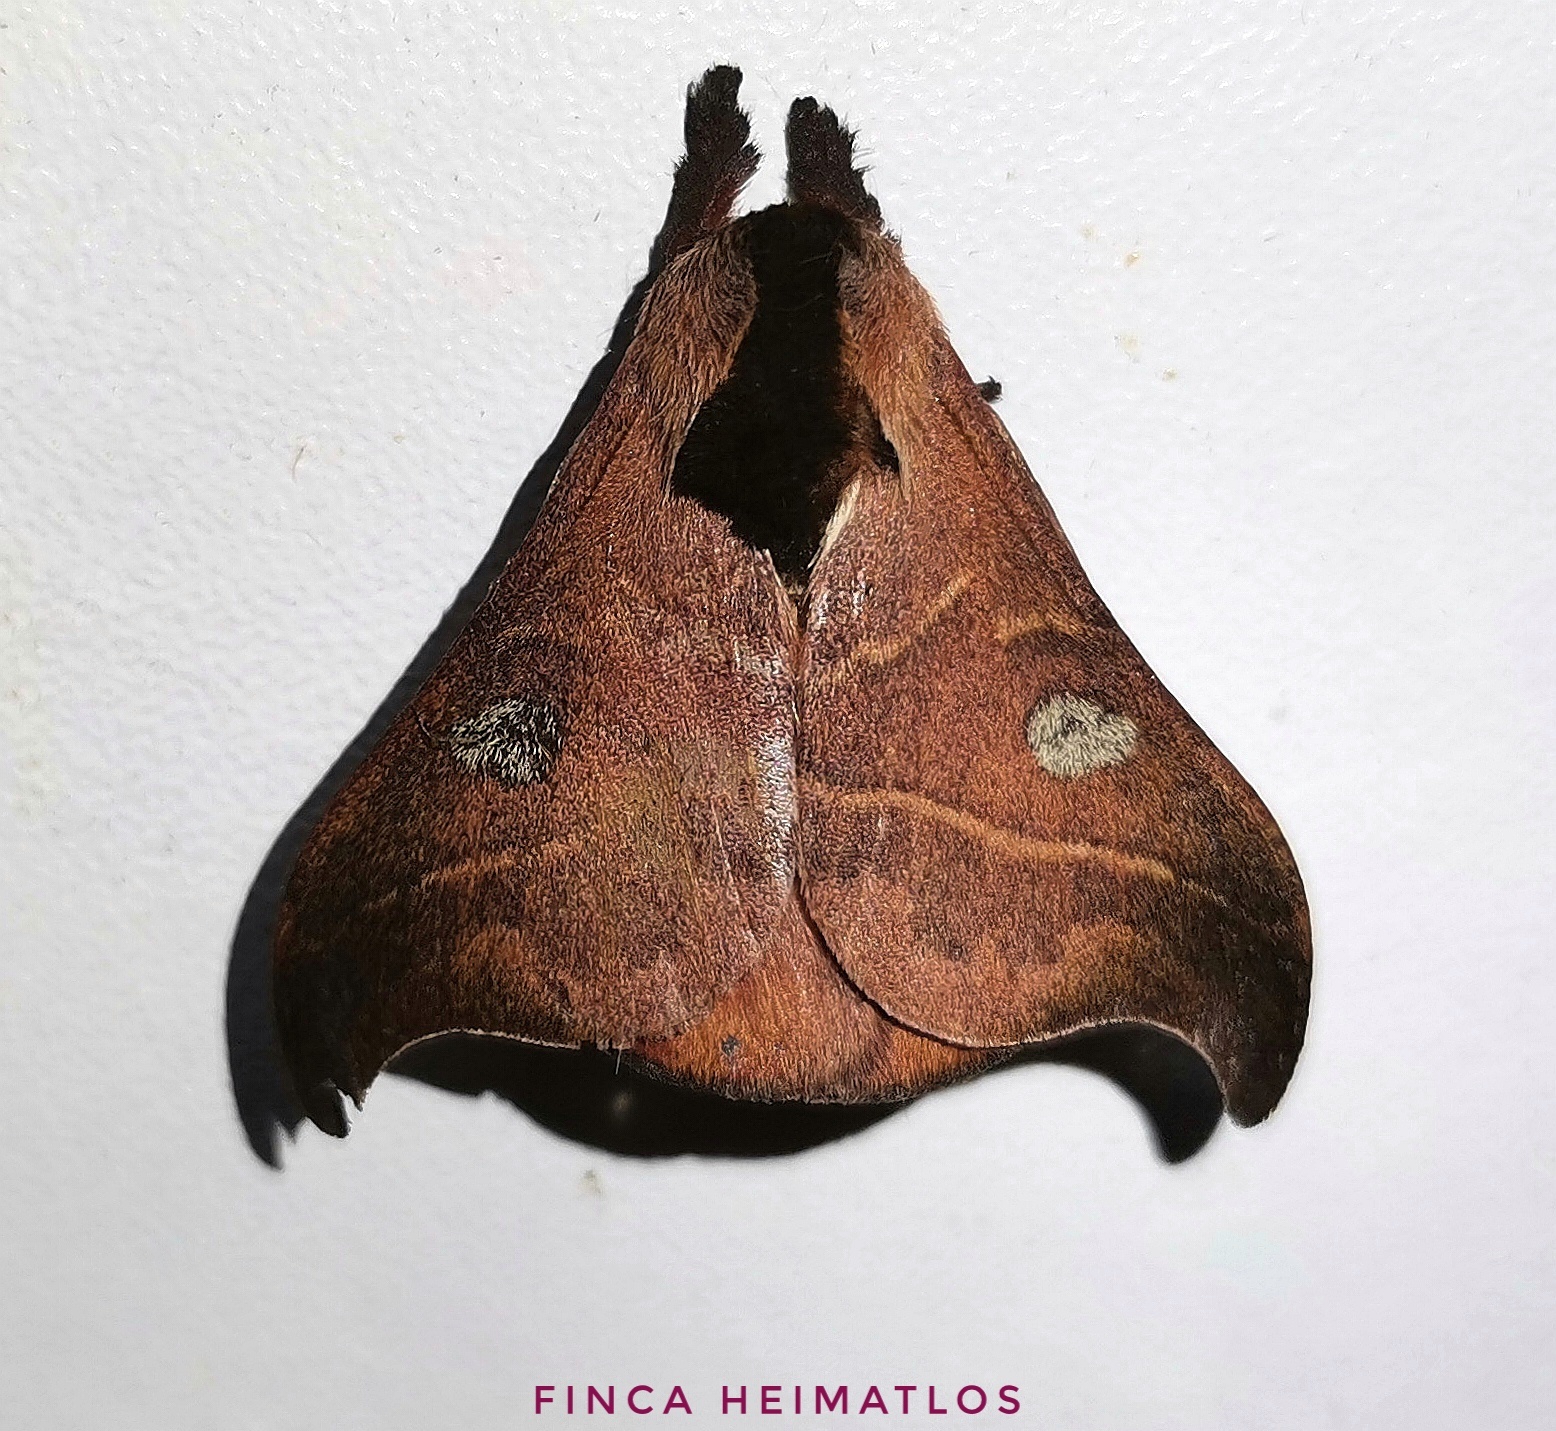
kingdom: Animalia
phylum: Arthropoda
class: Insecta
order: Lepidoptera
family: Saturniidae
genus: Hylesia
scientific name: Hylesia nanus
